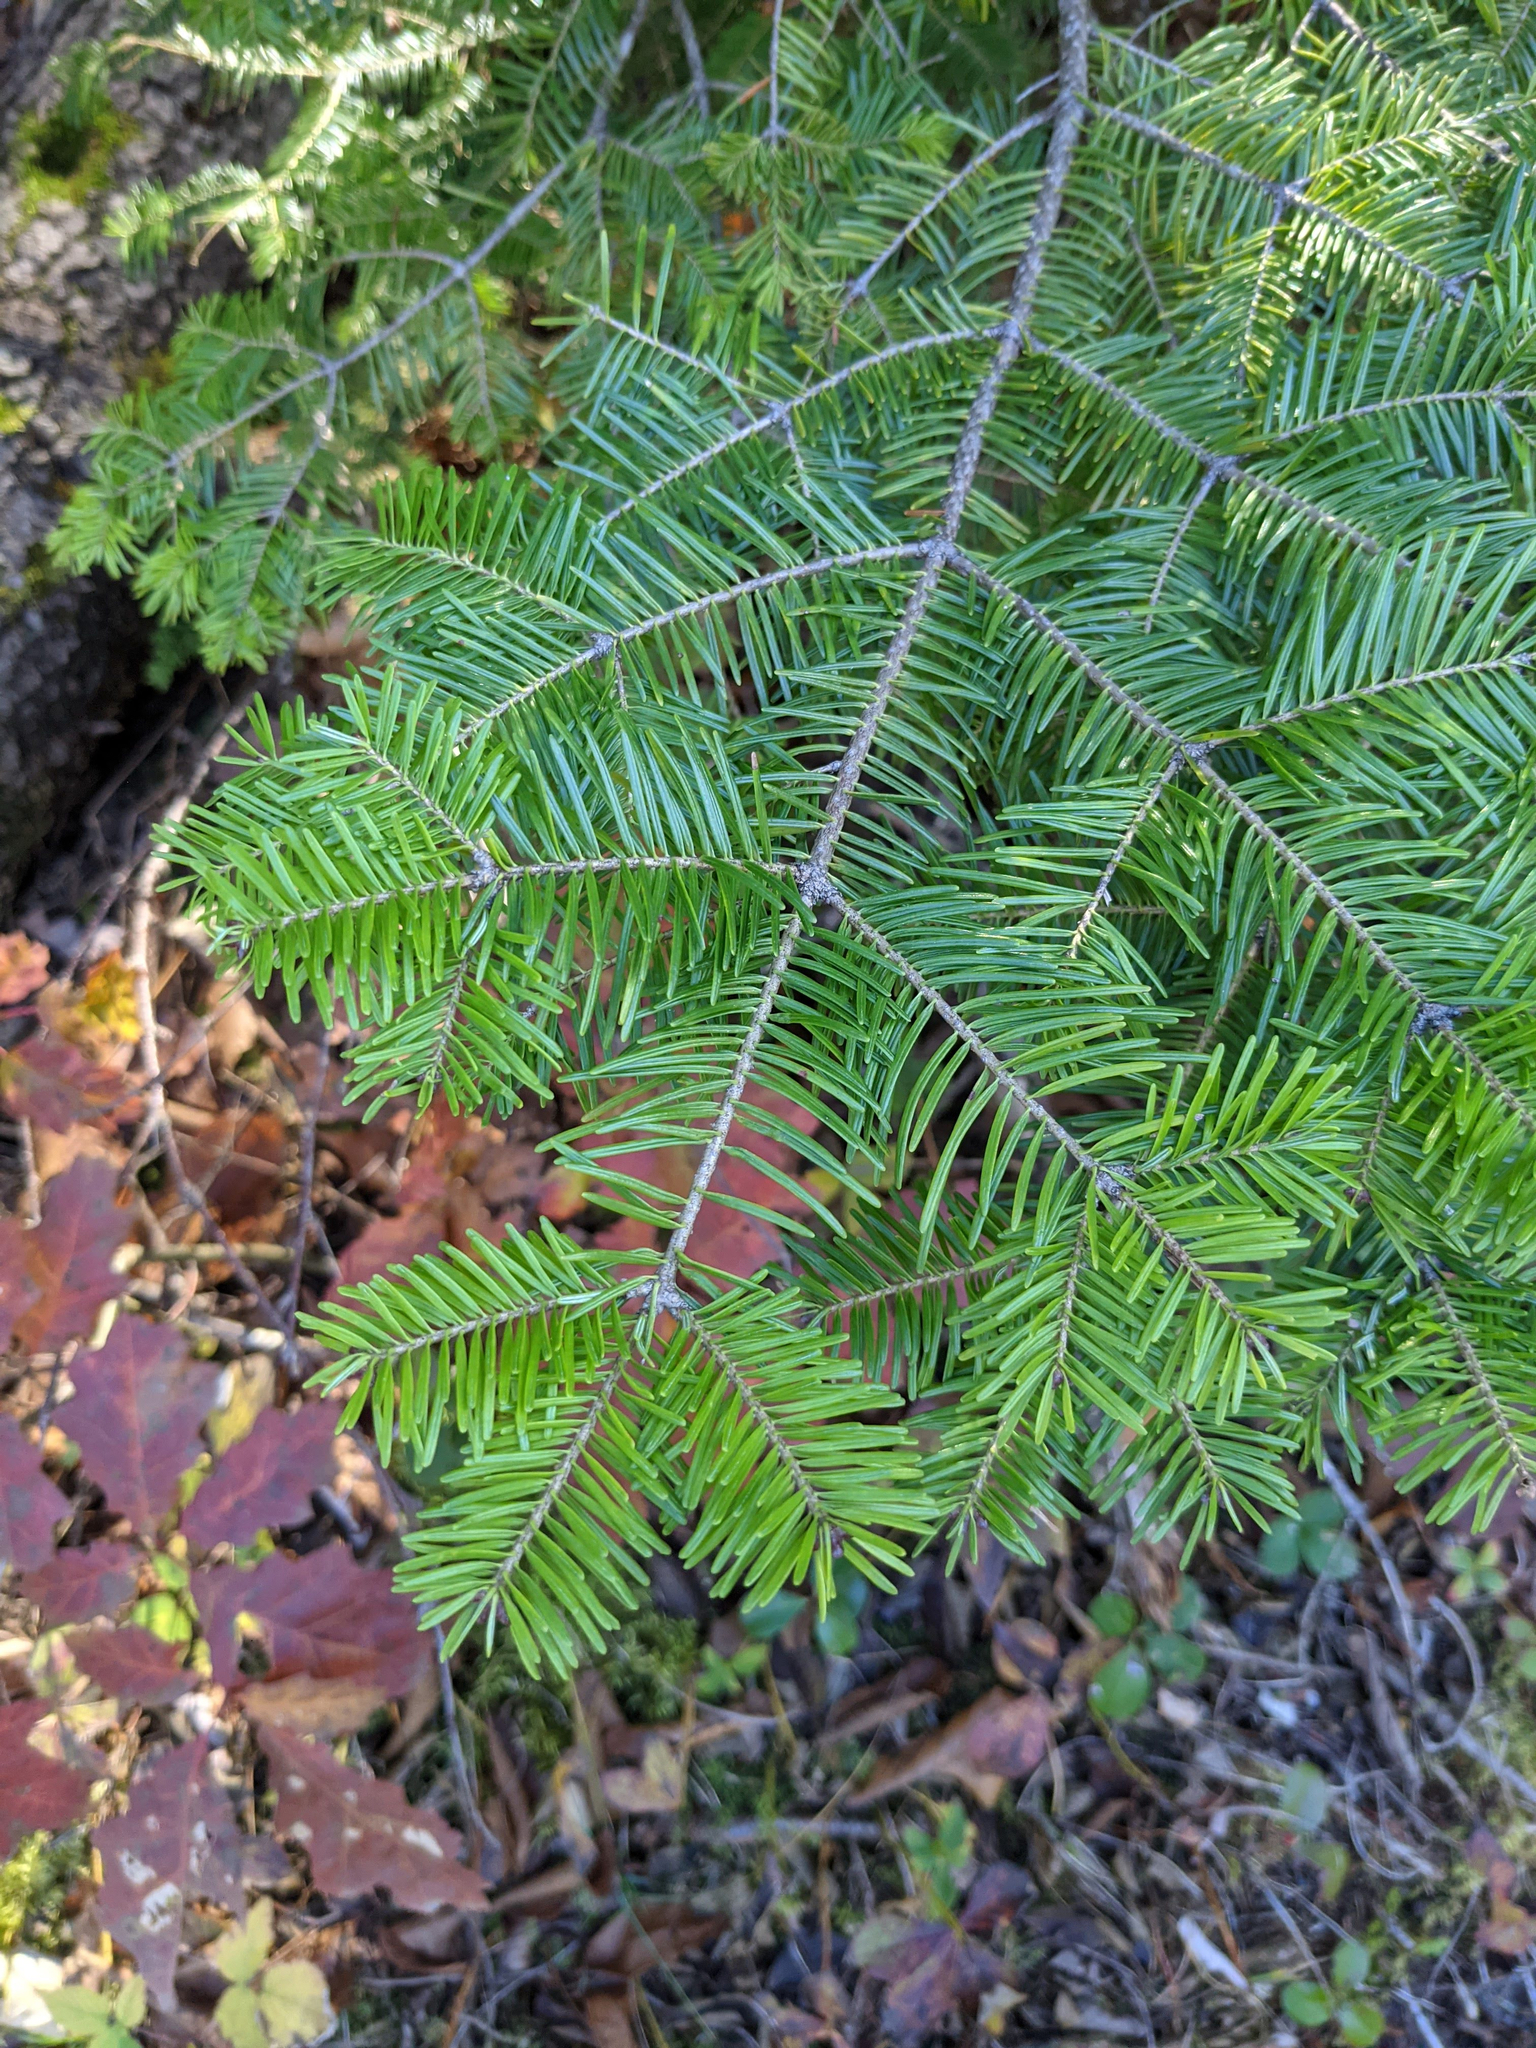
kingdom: Plantae
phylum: Tracheophyta
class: Pinopsida
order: Pinales
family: Pinaceae
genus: Abies
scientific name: Abies balsamea
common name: Balsam fir
